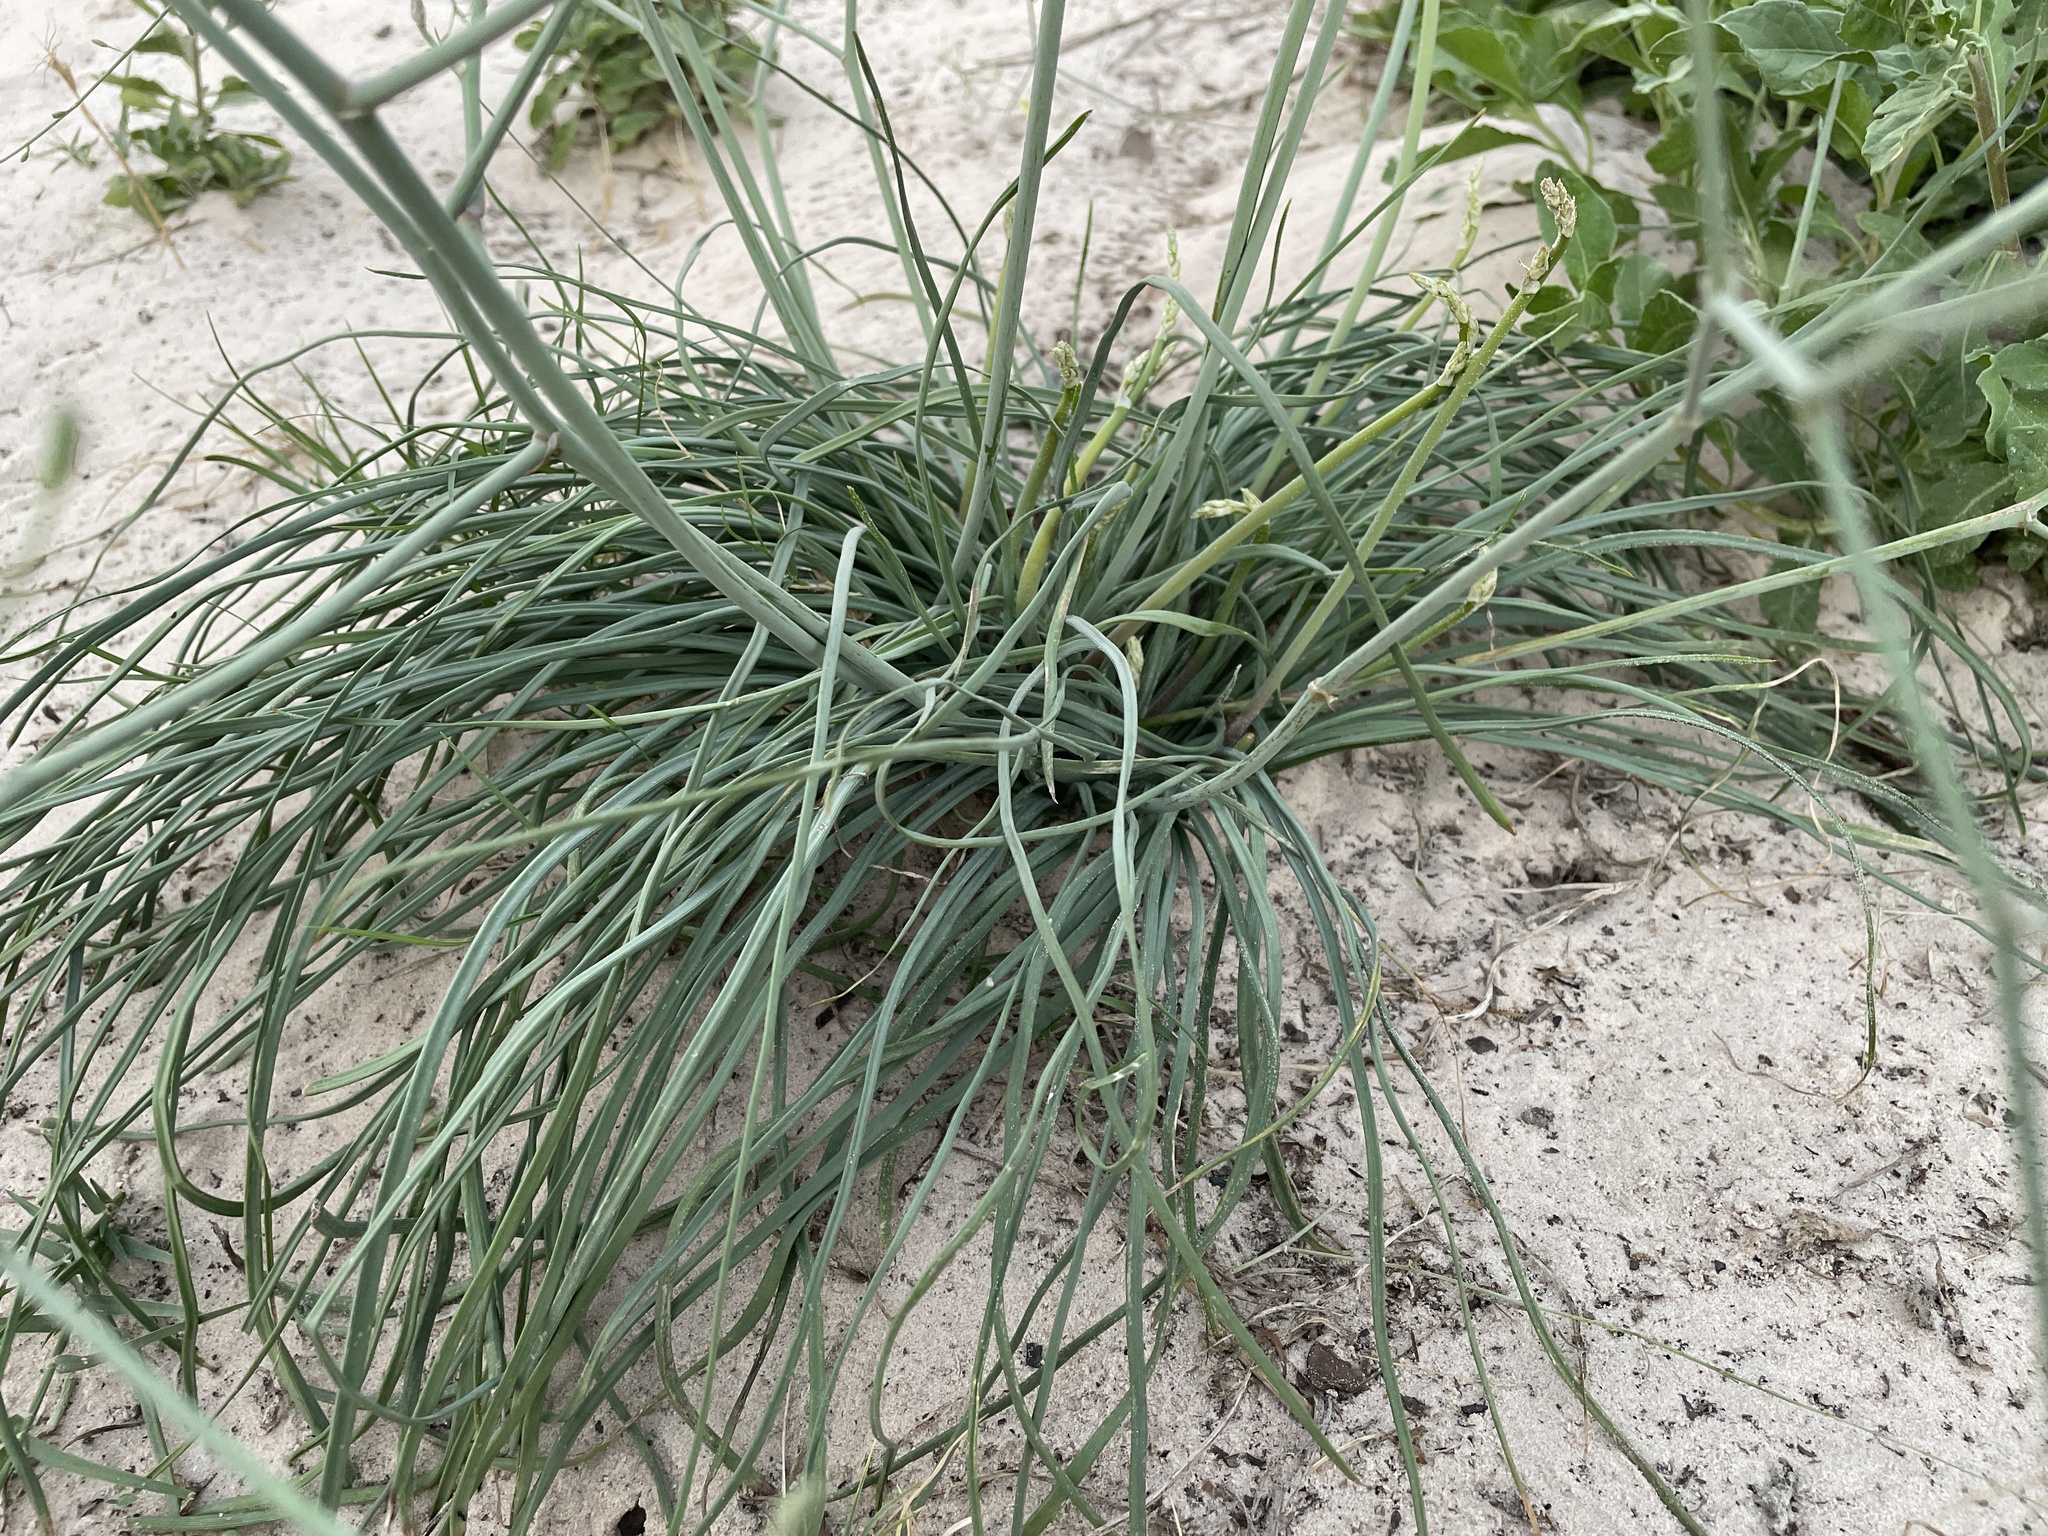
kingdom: Plantae
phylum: Tracheophyta
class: Liliopsida
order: Asparagales
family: Asphodelaceae
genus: Trachyandra
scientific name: Trachyandra arvensis
